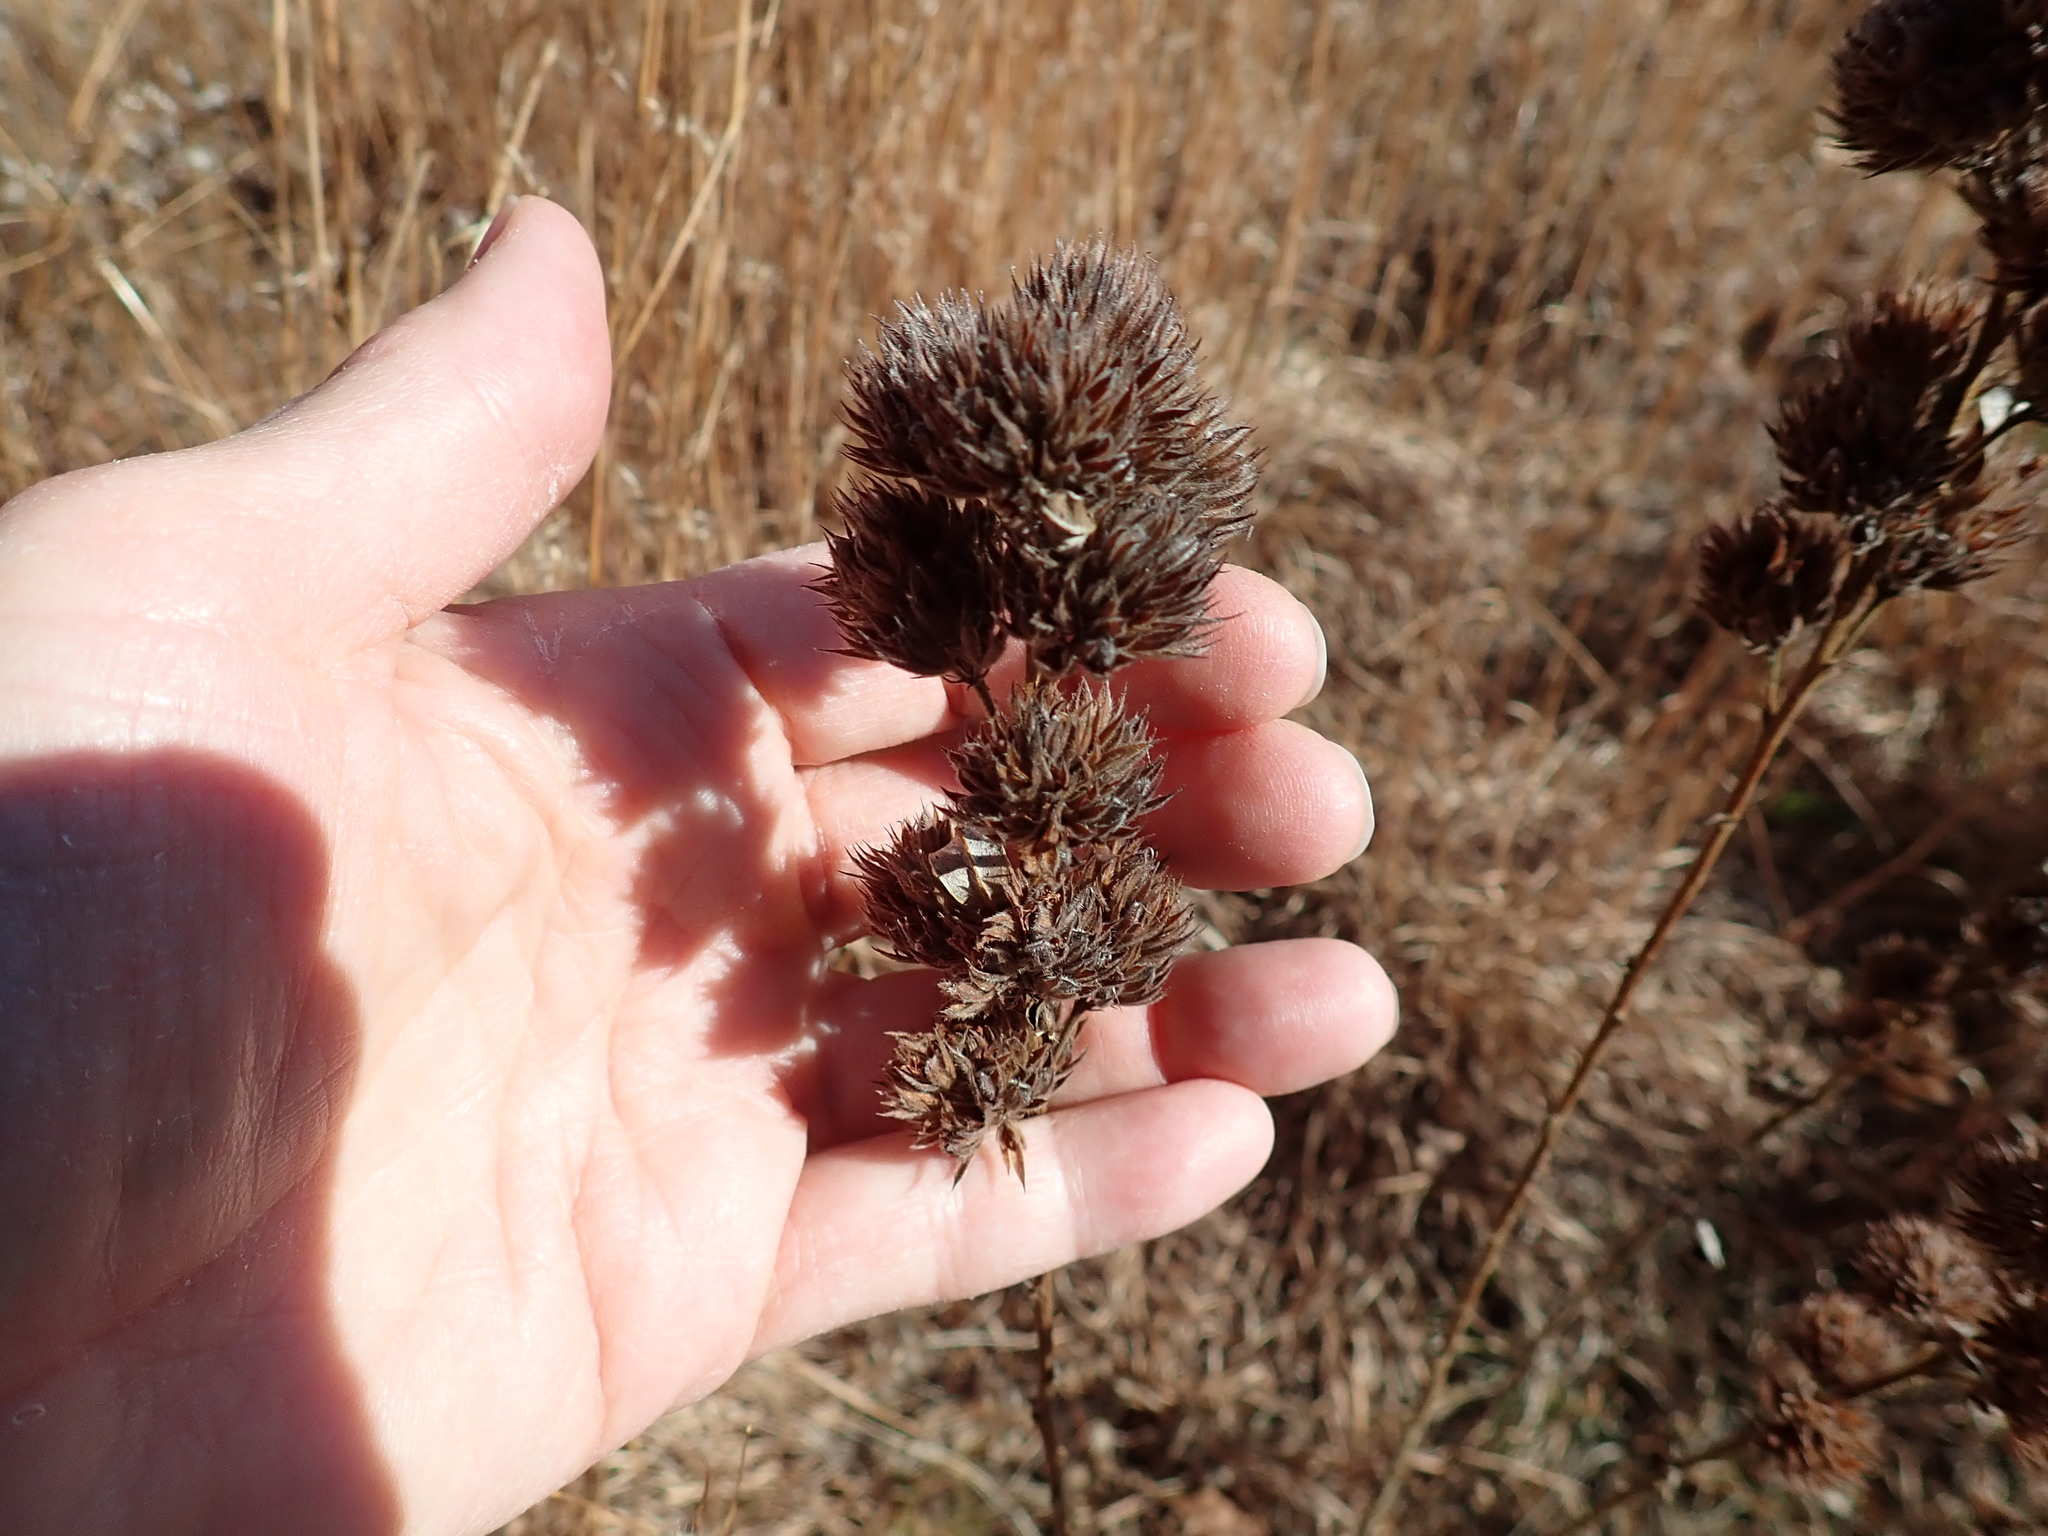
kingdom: Plantae
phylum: Tracheophyta
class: Magnoliopsida
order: Fabales
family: Fabaceae
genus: Lespedeza
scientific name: Lespedeza capitata
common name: Dusty clover
